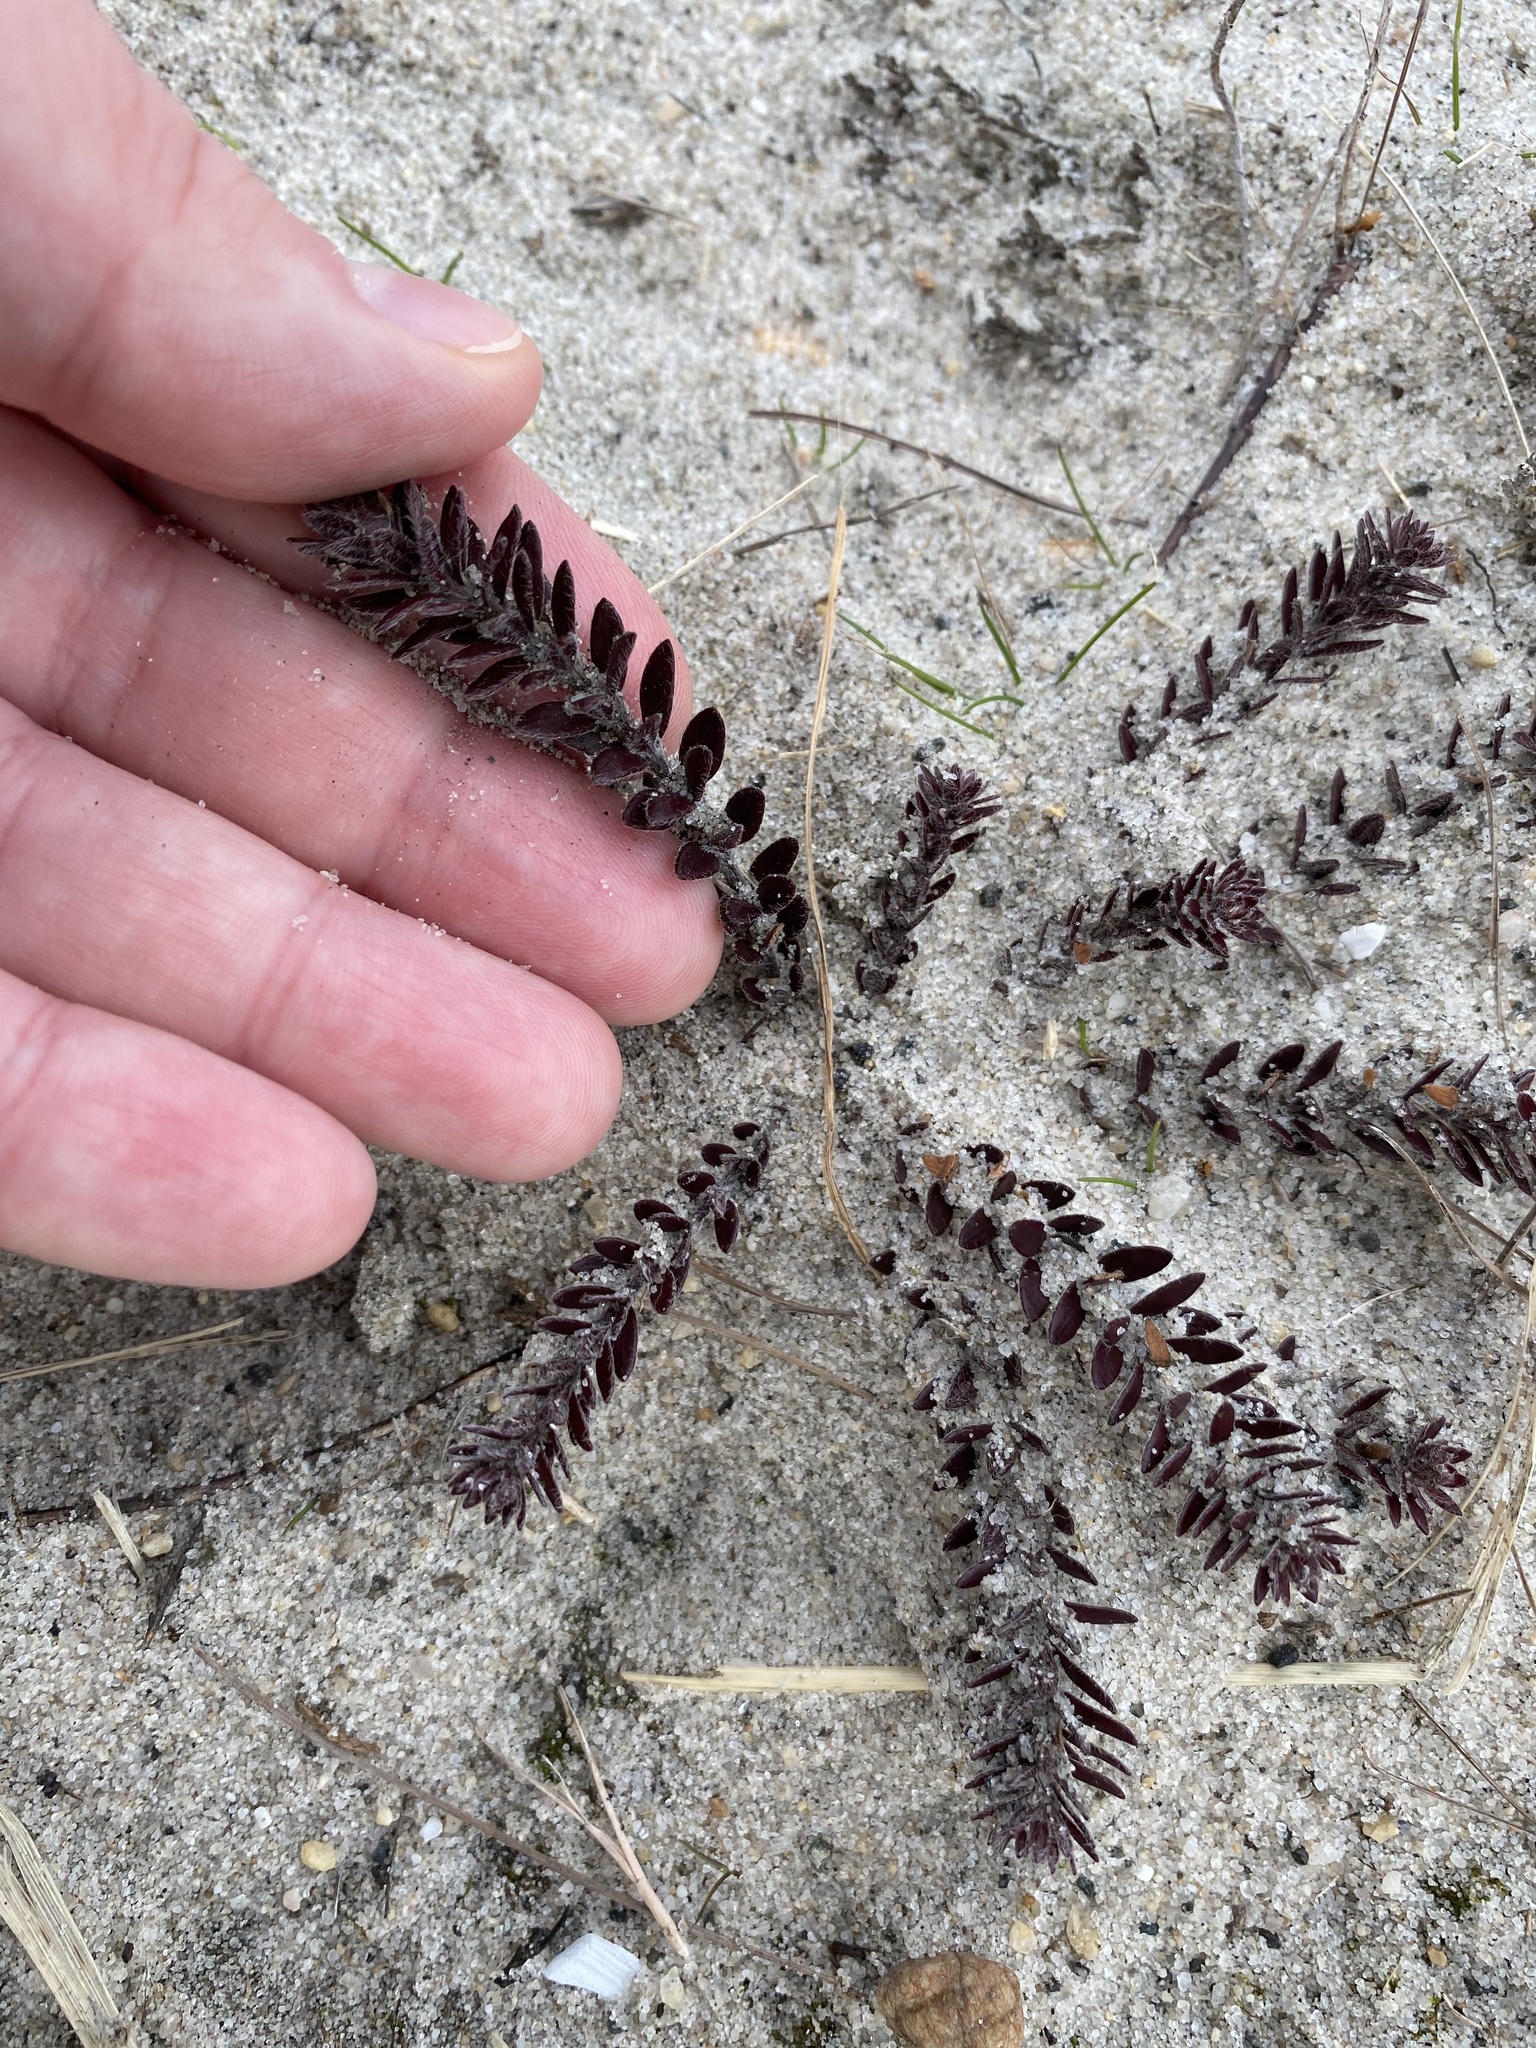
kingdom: Plantae
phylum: Tracheophyta
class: Magnoliopsida
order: Malvales
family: Cistaceae
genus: Lechea
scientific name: Lechea maritima
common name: Beach pinweed
